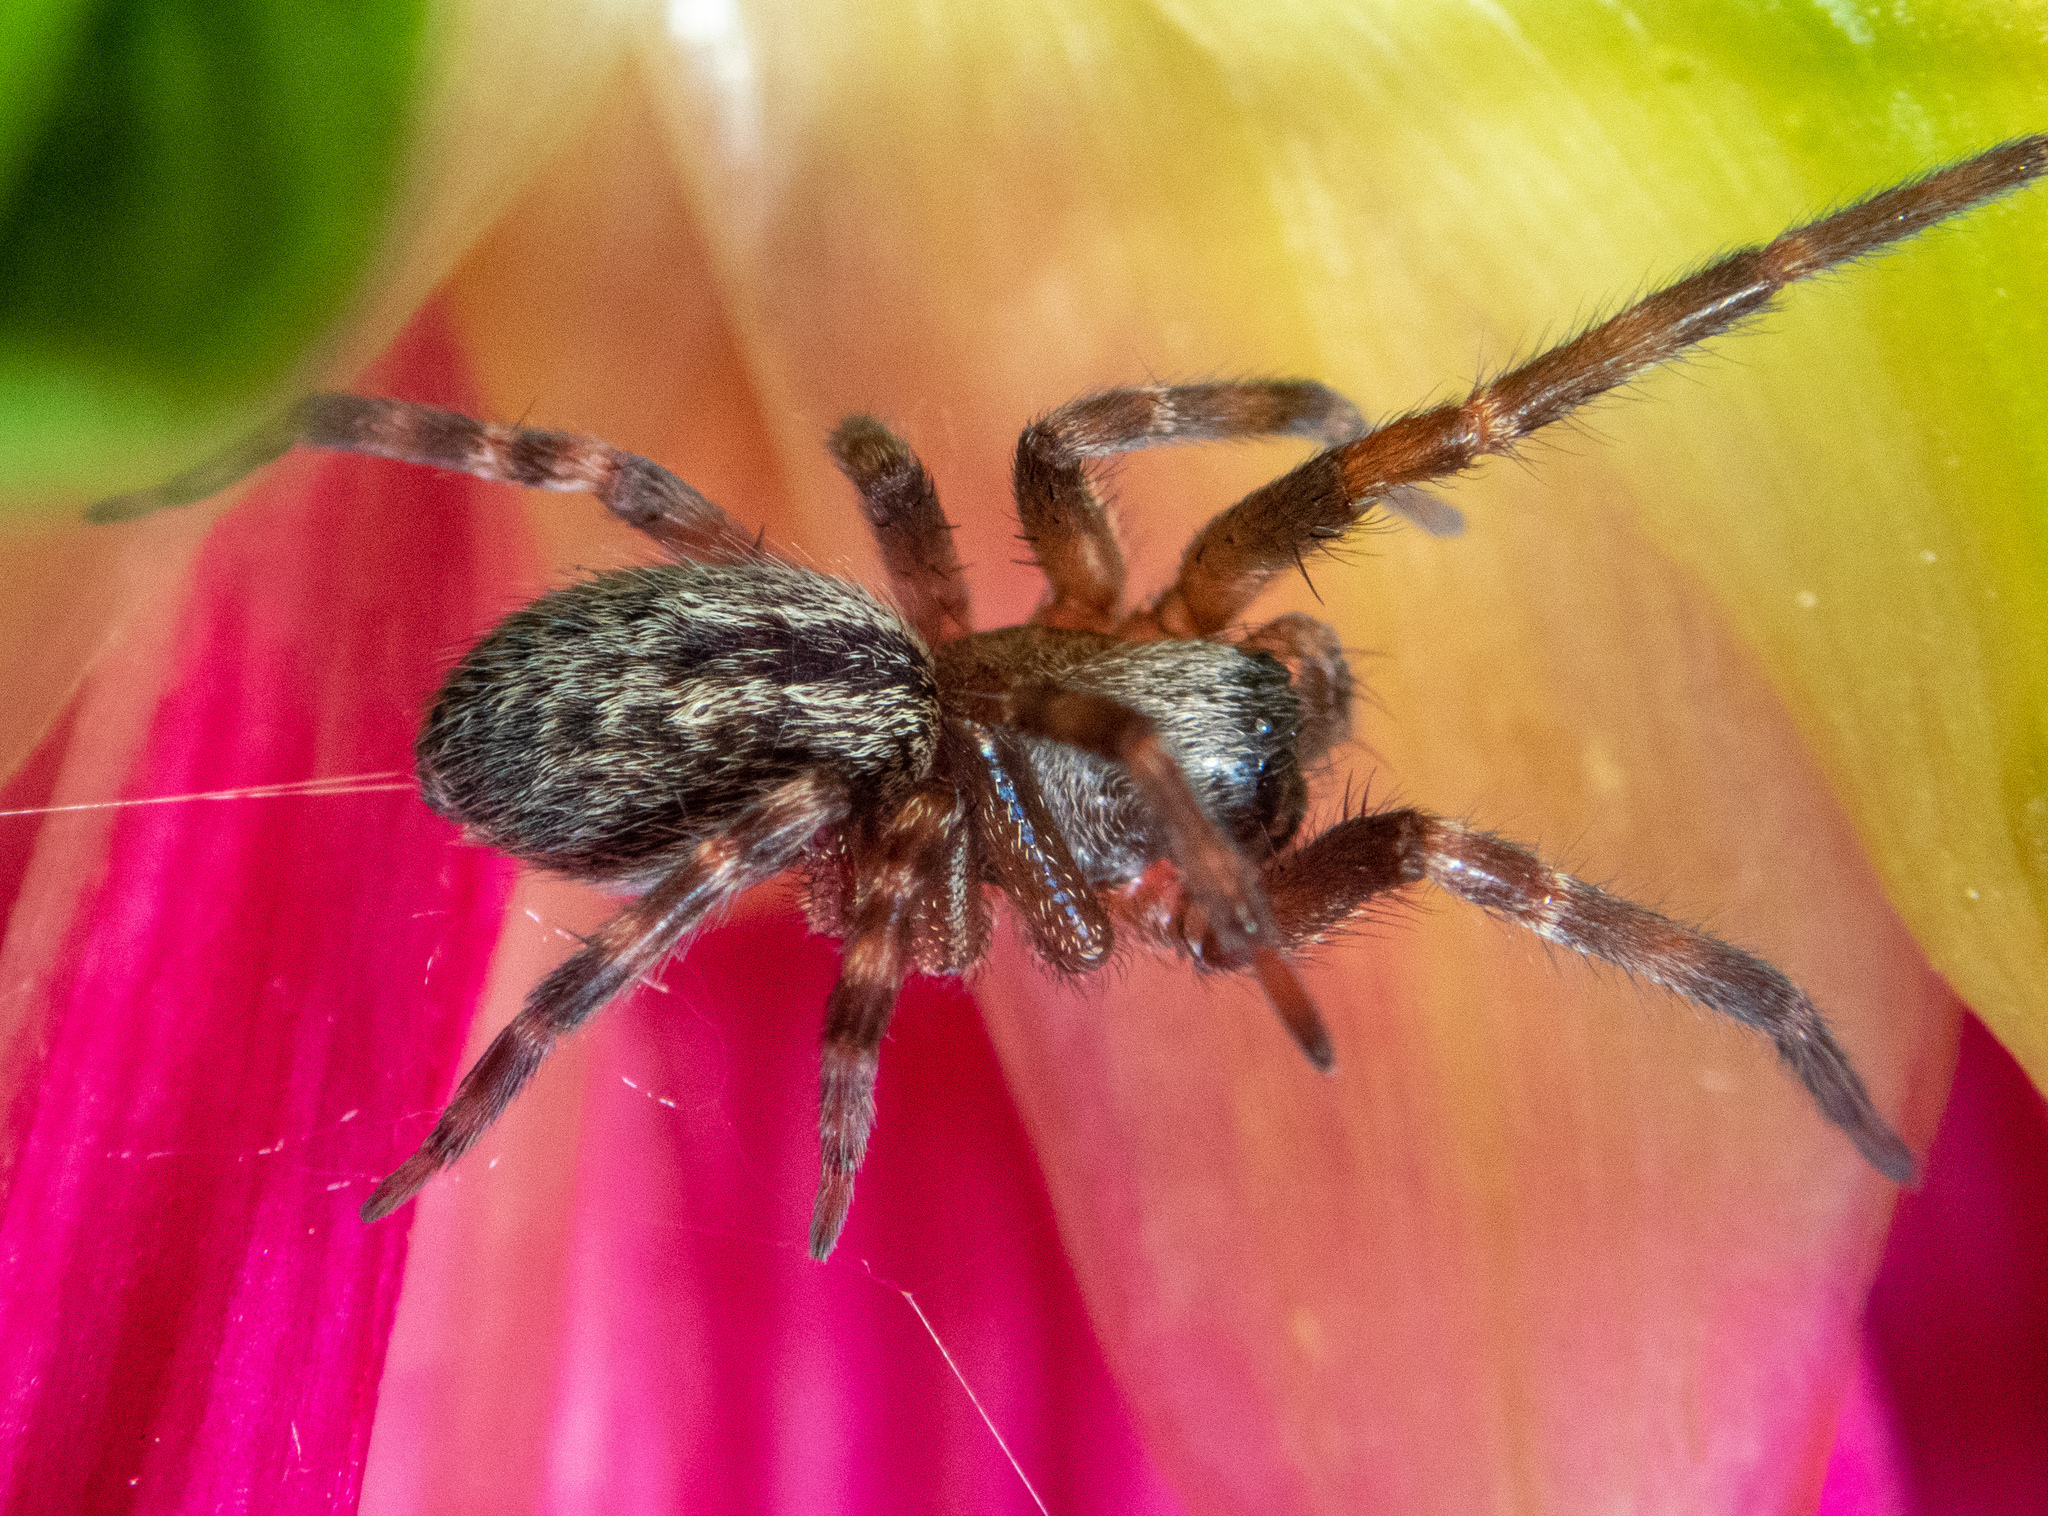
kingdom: Animalia
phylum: Arthropoda
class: Arachnida
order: Araneae
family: Desidae
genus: Badumna
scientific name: Badumna longinqua
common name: Gray house spider
